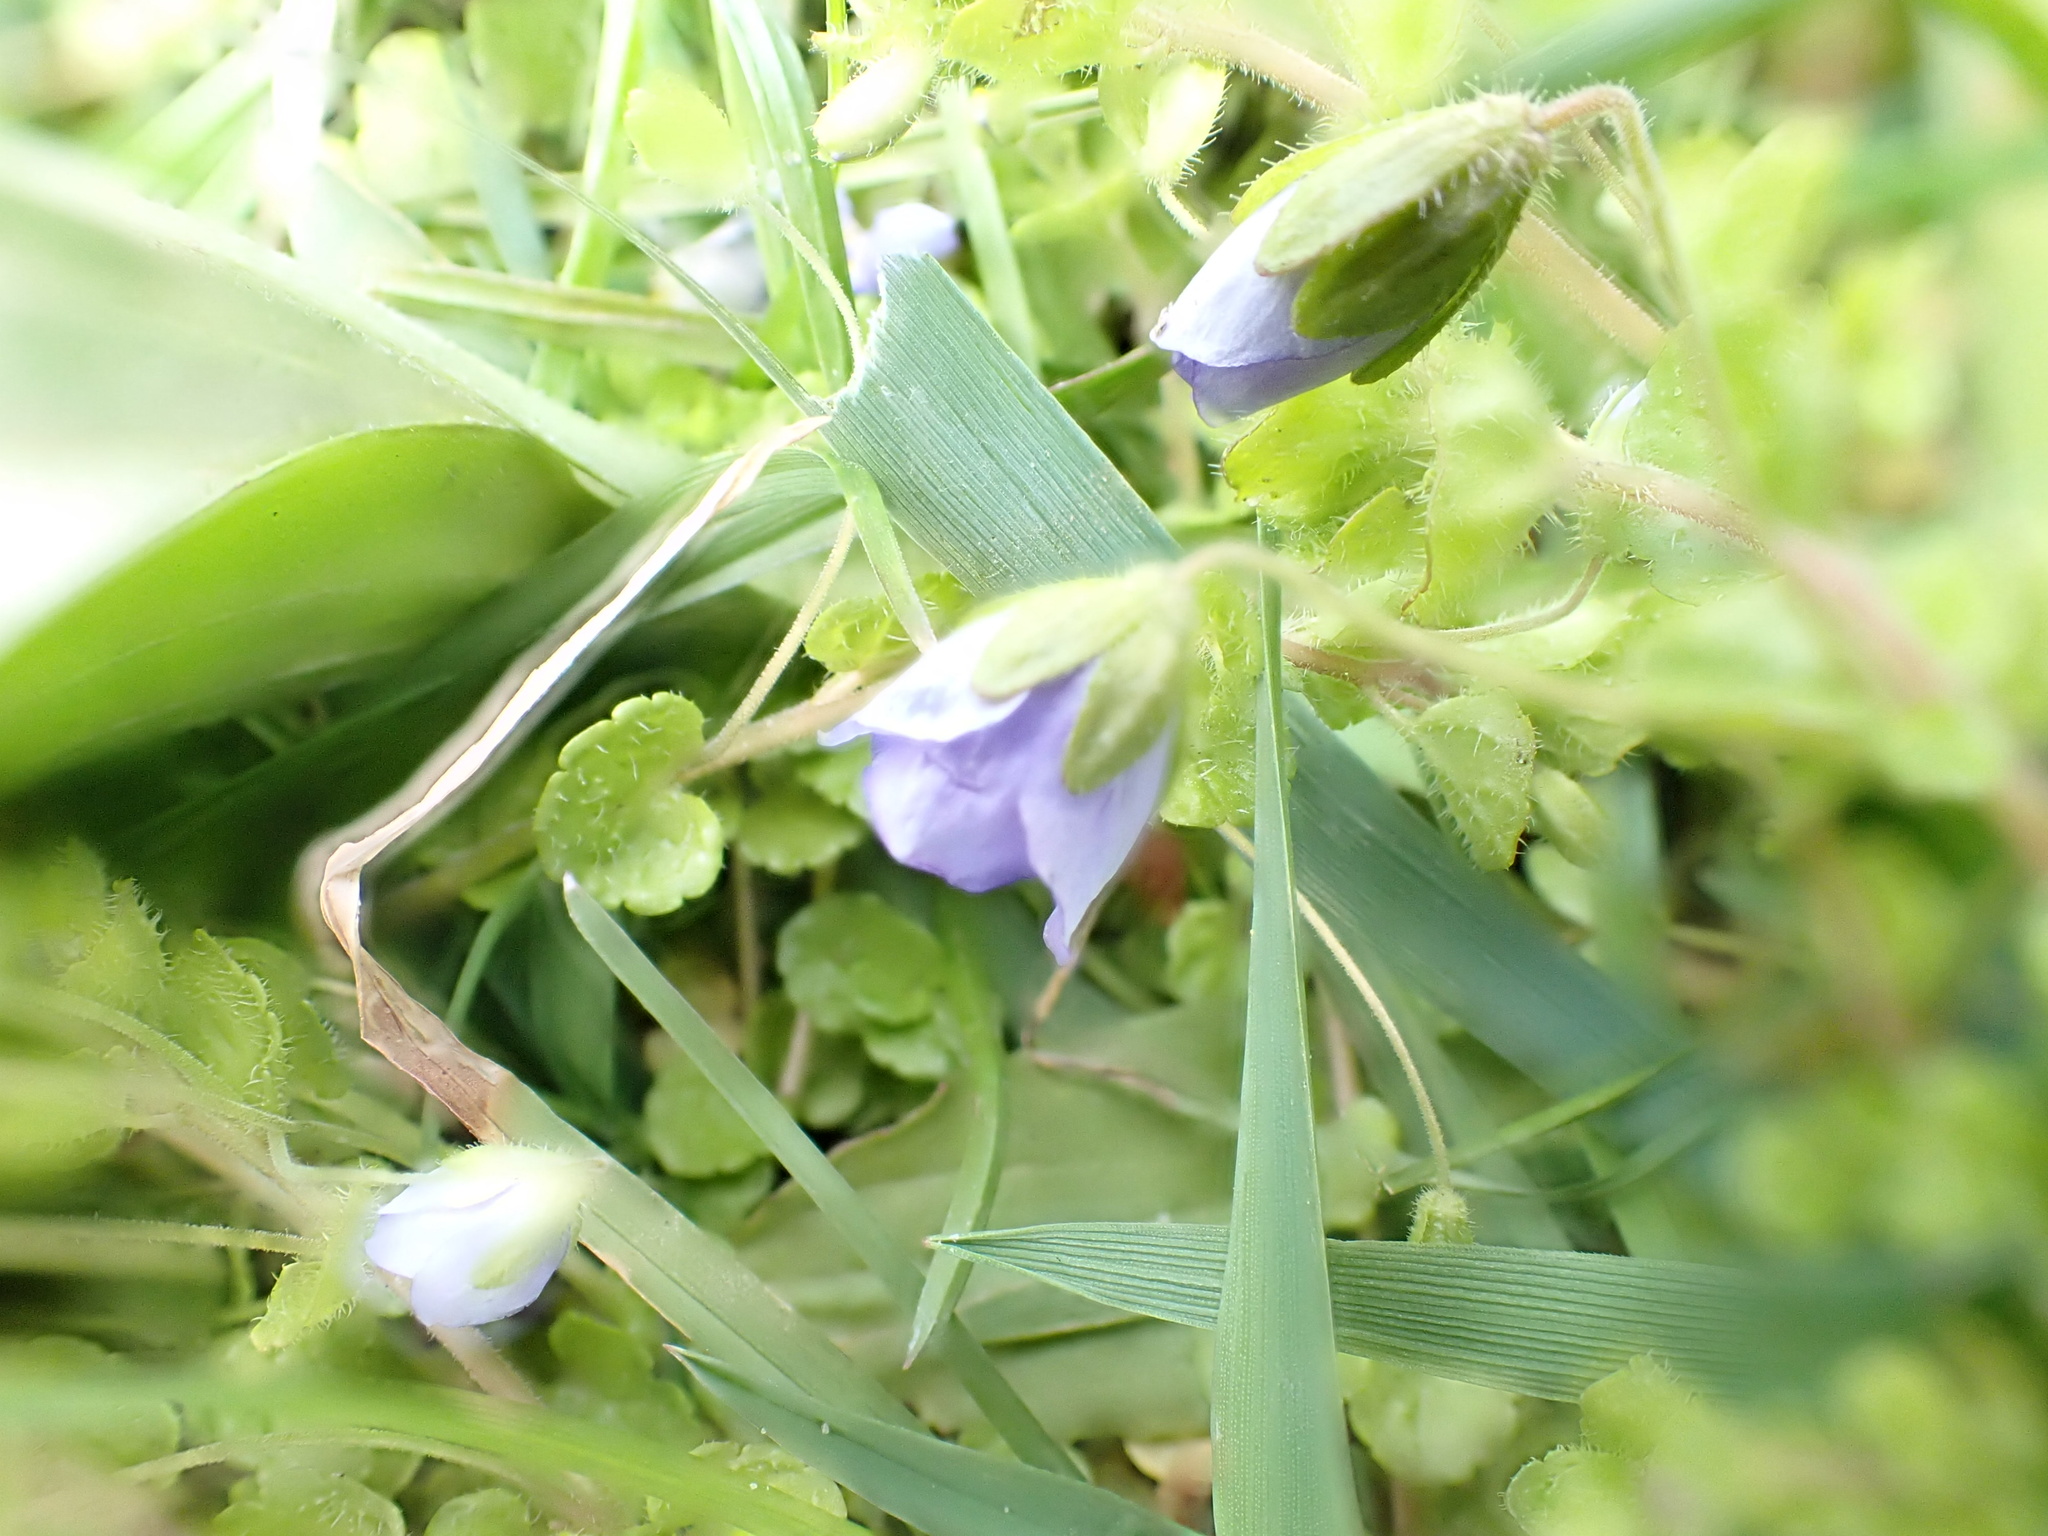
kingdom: Plantae
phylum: Tracheophyta
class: Magnoliopsida
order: Lamiales
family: Plantaginaceae
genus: Veronica
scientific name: Veronica filiformis
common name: Slender speedwell
